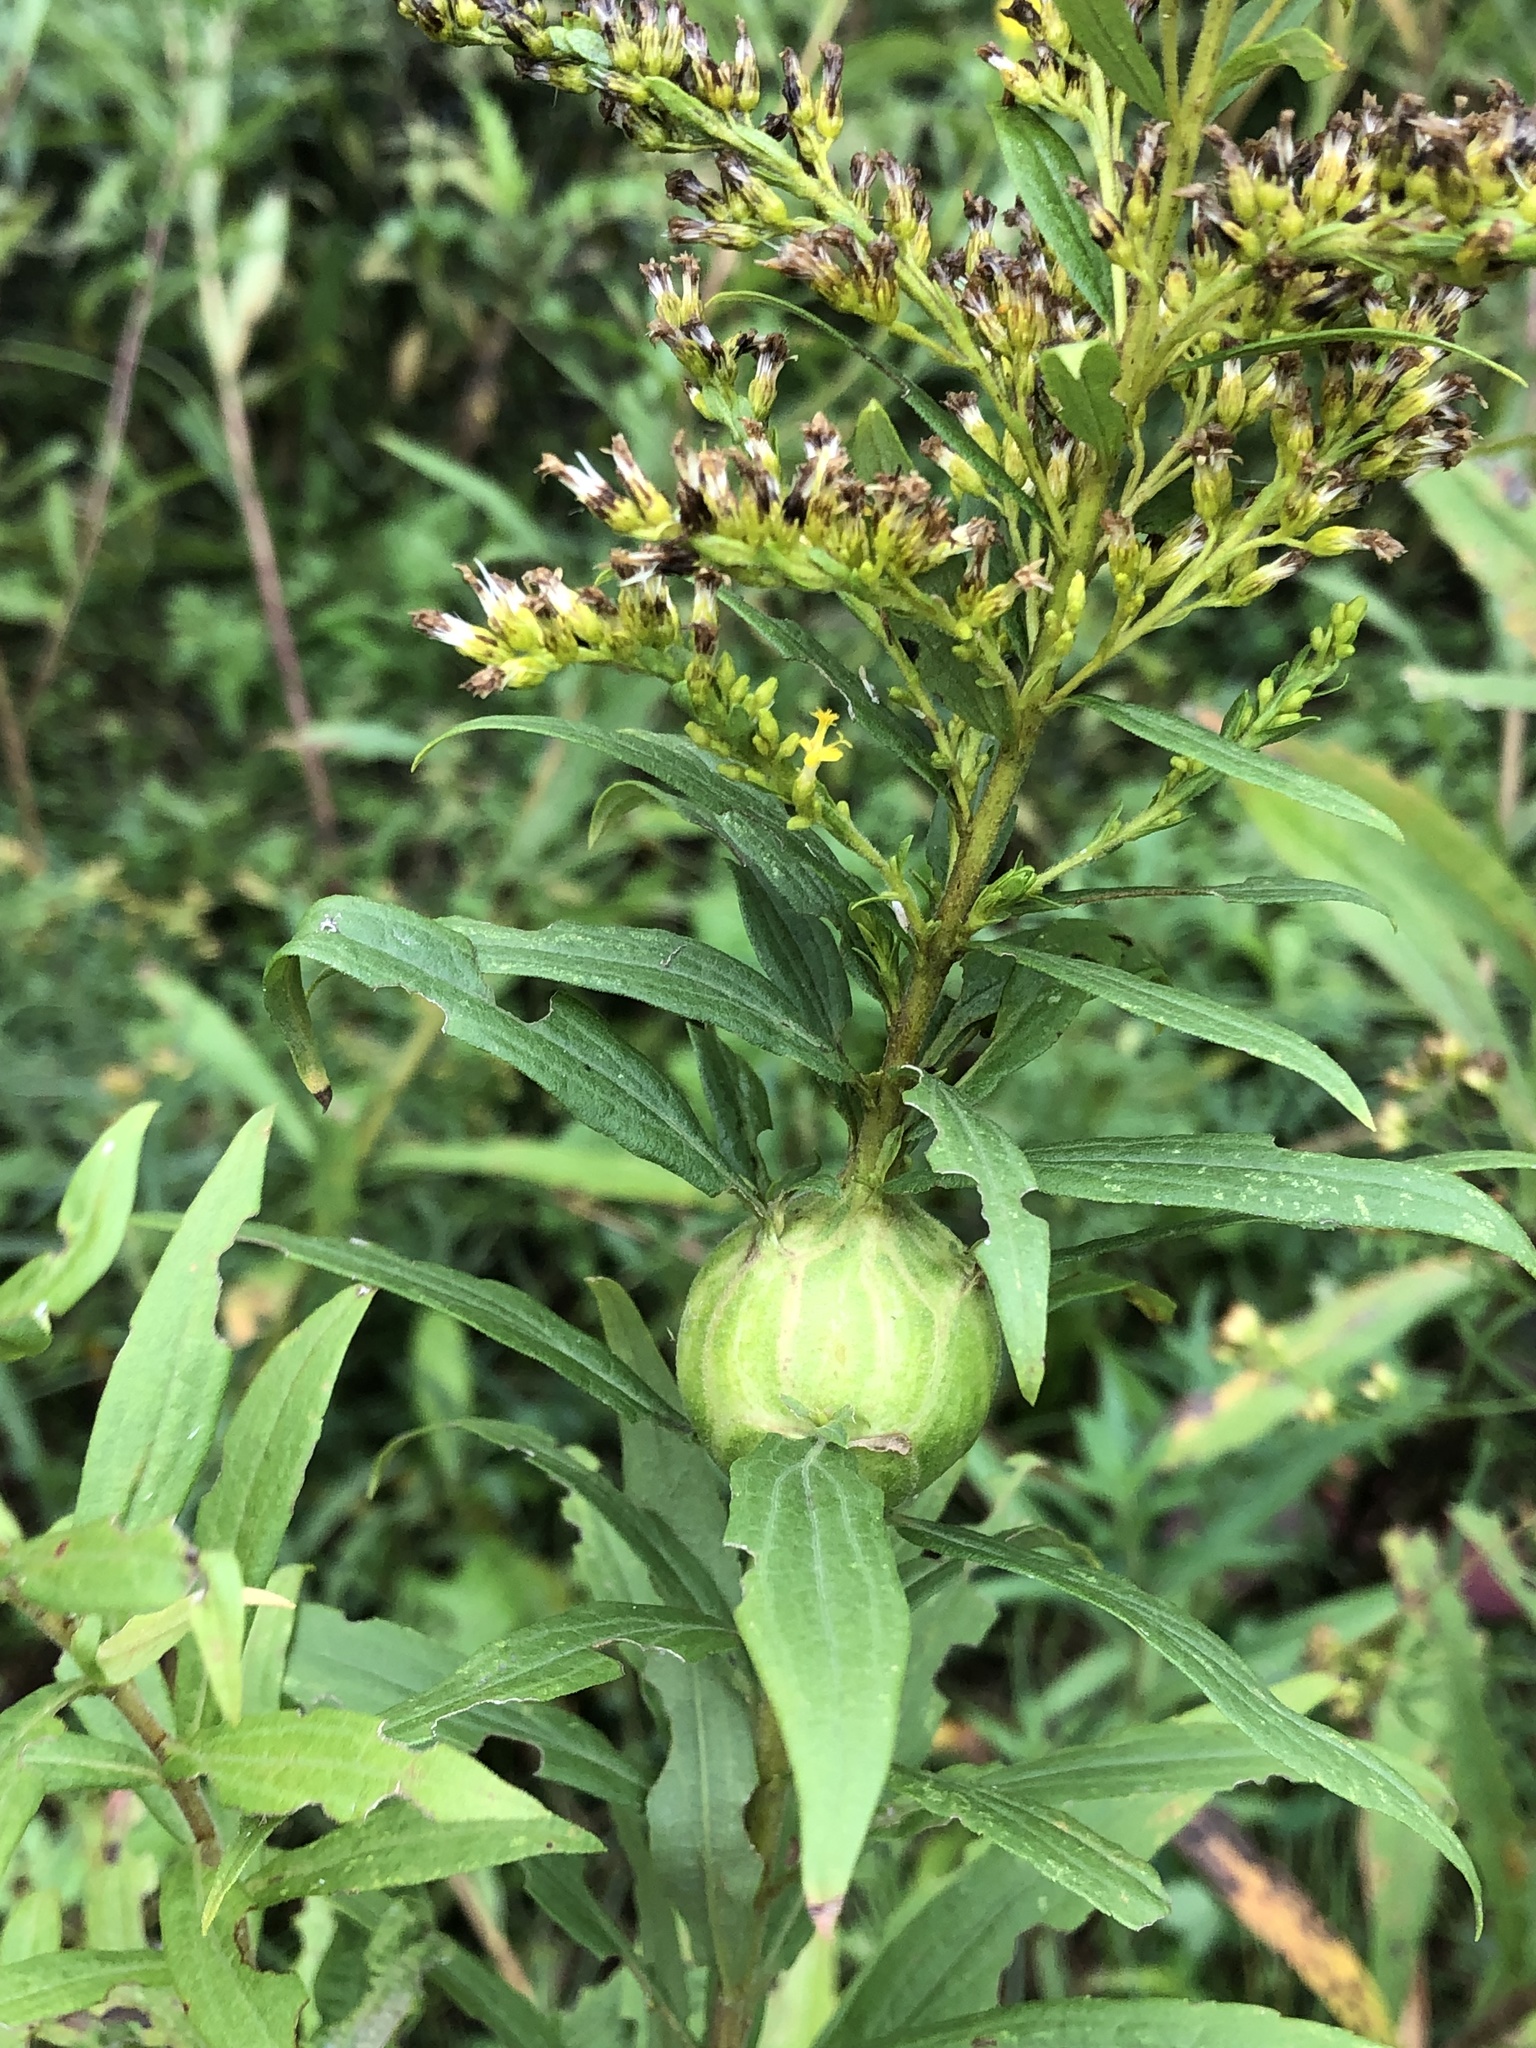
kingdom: Animalia
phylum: Arthropoda
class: Insecta
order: Diptera
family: Tephritidae
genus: Eurosta
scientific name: Eurosta solidaginis
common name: Goldenrod gall fly
